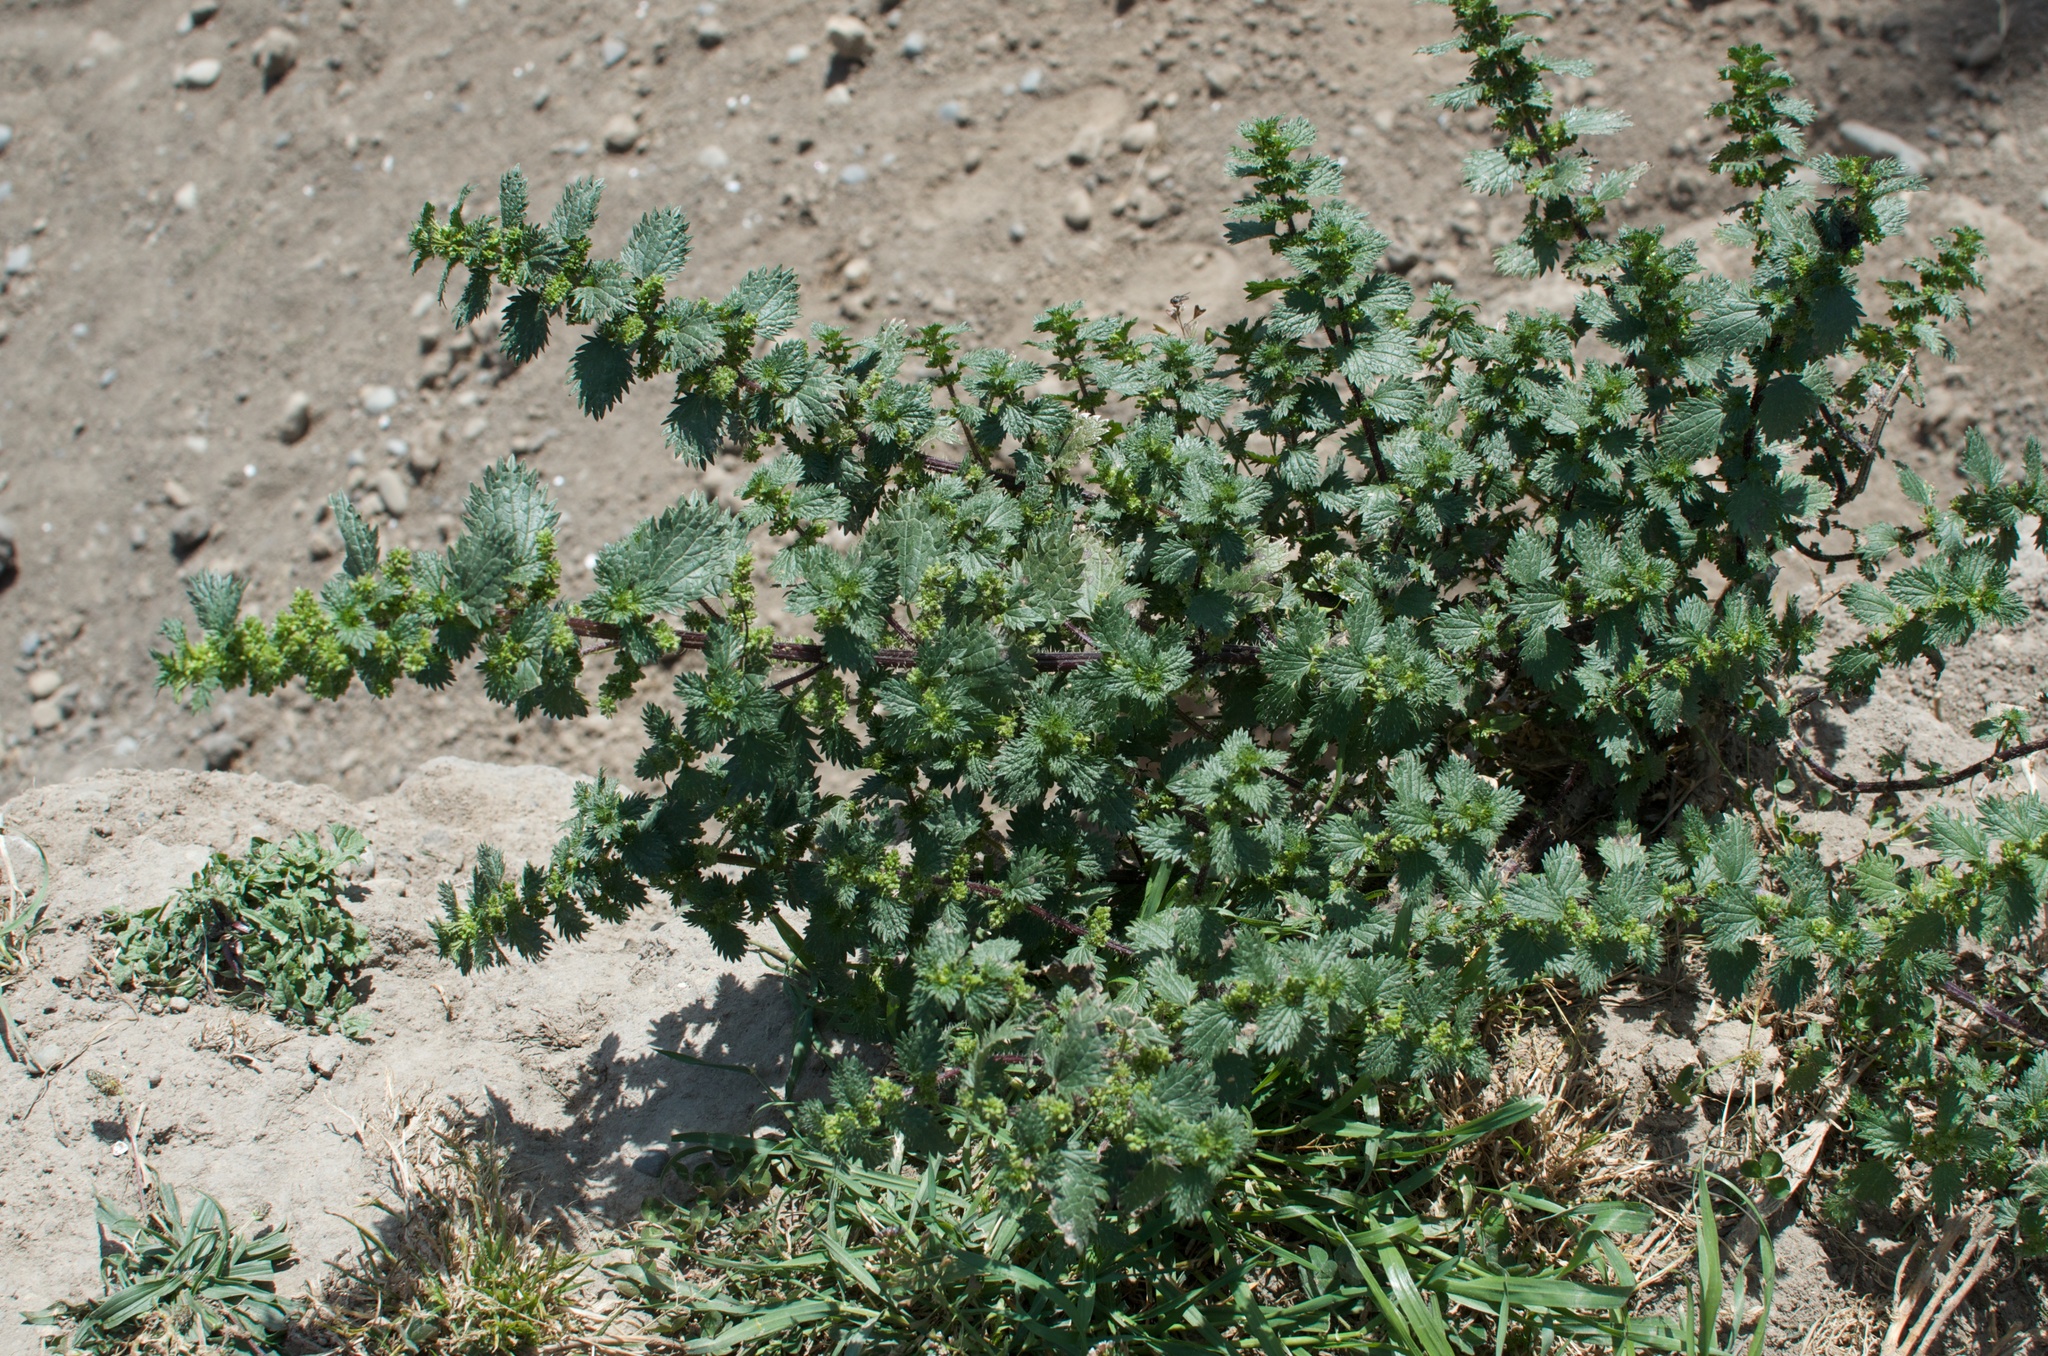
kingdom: Plantae
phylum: Tracheophyta
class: Magnoliopsida
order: Rosales
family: Urticaceae
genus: Urtica
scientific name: Urtica urens
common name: Dwarf nettle
